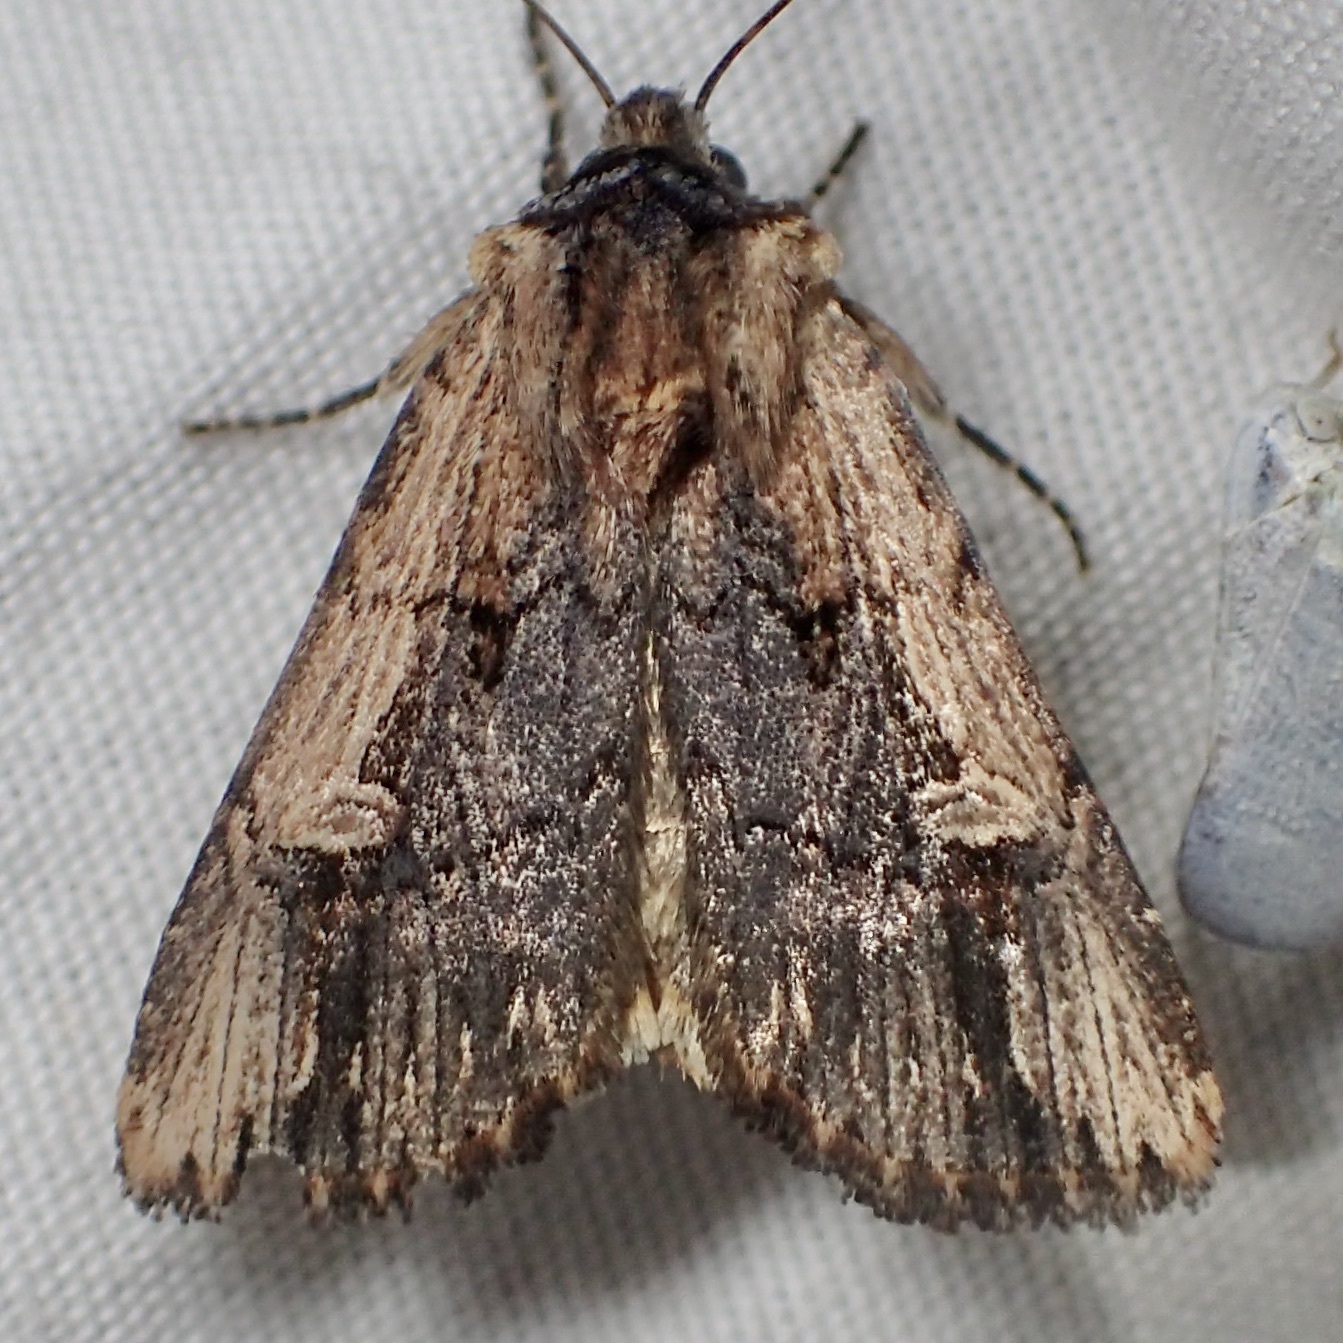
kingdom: Animalia
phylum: Arthropoda
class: Insecta
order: Lepidoptera
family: Noctuidae
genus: Dichagyris
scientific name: Dichagyris cataclivis
